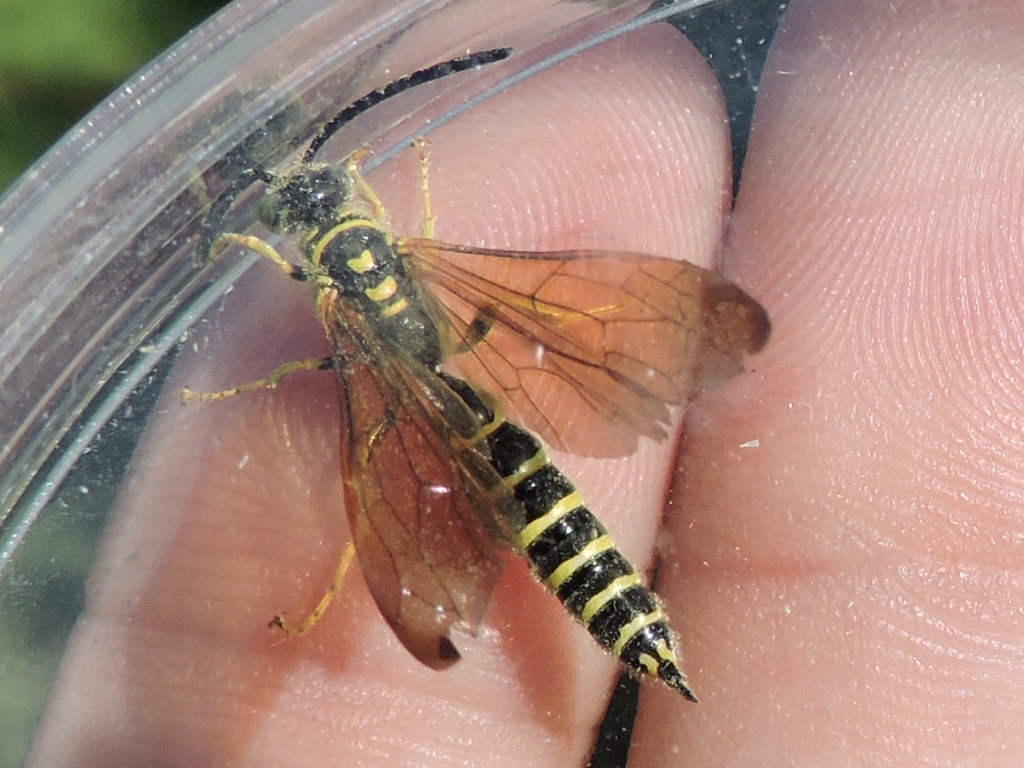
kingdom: Animalia
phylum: Arthropoda
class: Insecta
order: Hymenoptera
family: Tiphiidae
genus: Myzinum
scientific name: Myzinum quinquecinctum
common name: Five-banded thynnid wasp
